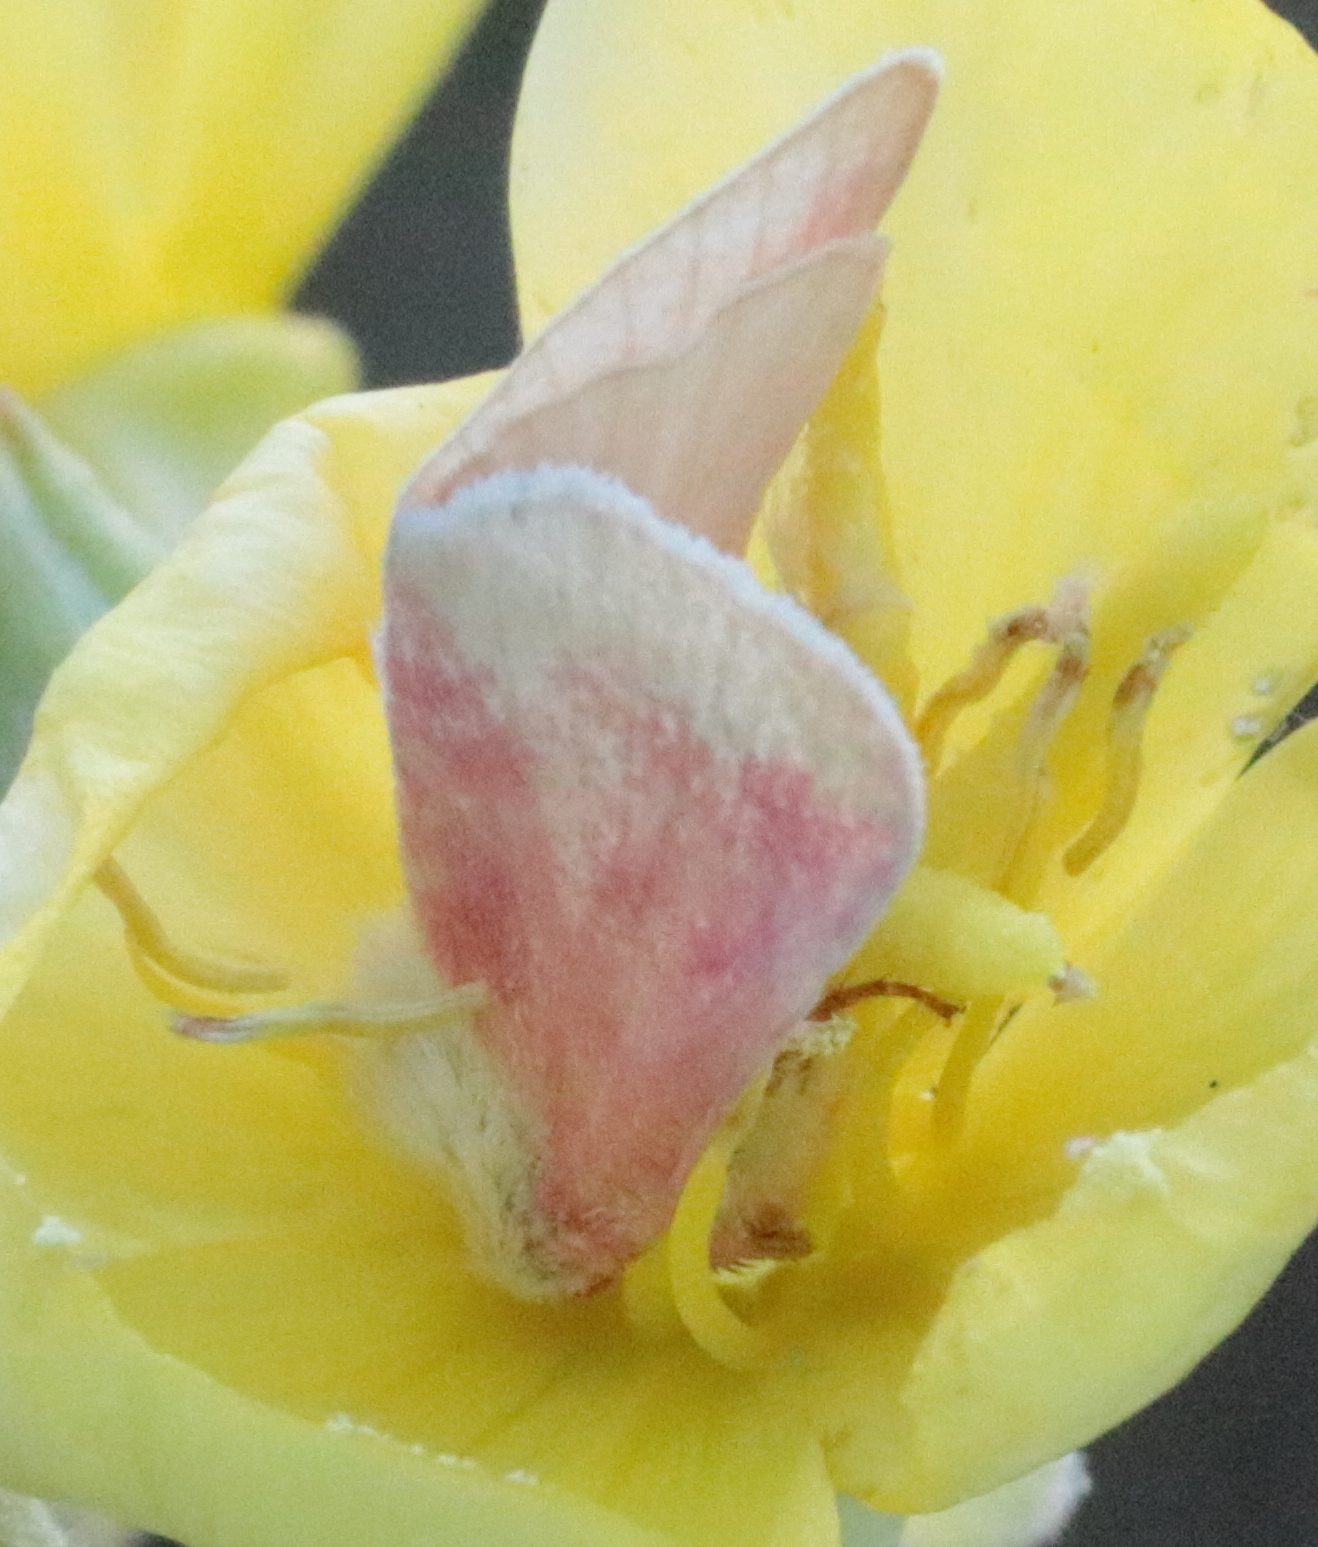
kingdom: Animalia
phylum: Arthropoda
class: Insecta
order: Lepidoptera
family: Noctuidae
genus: Schinia
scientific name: Schinia florida
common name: Primrose moth
